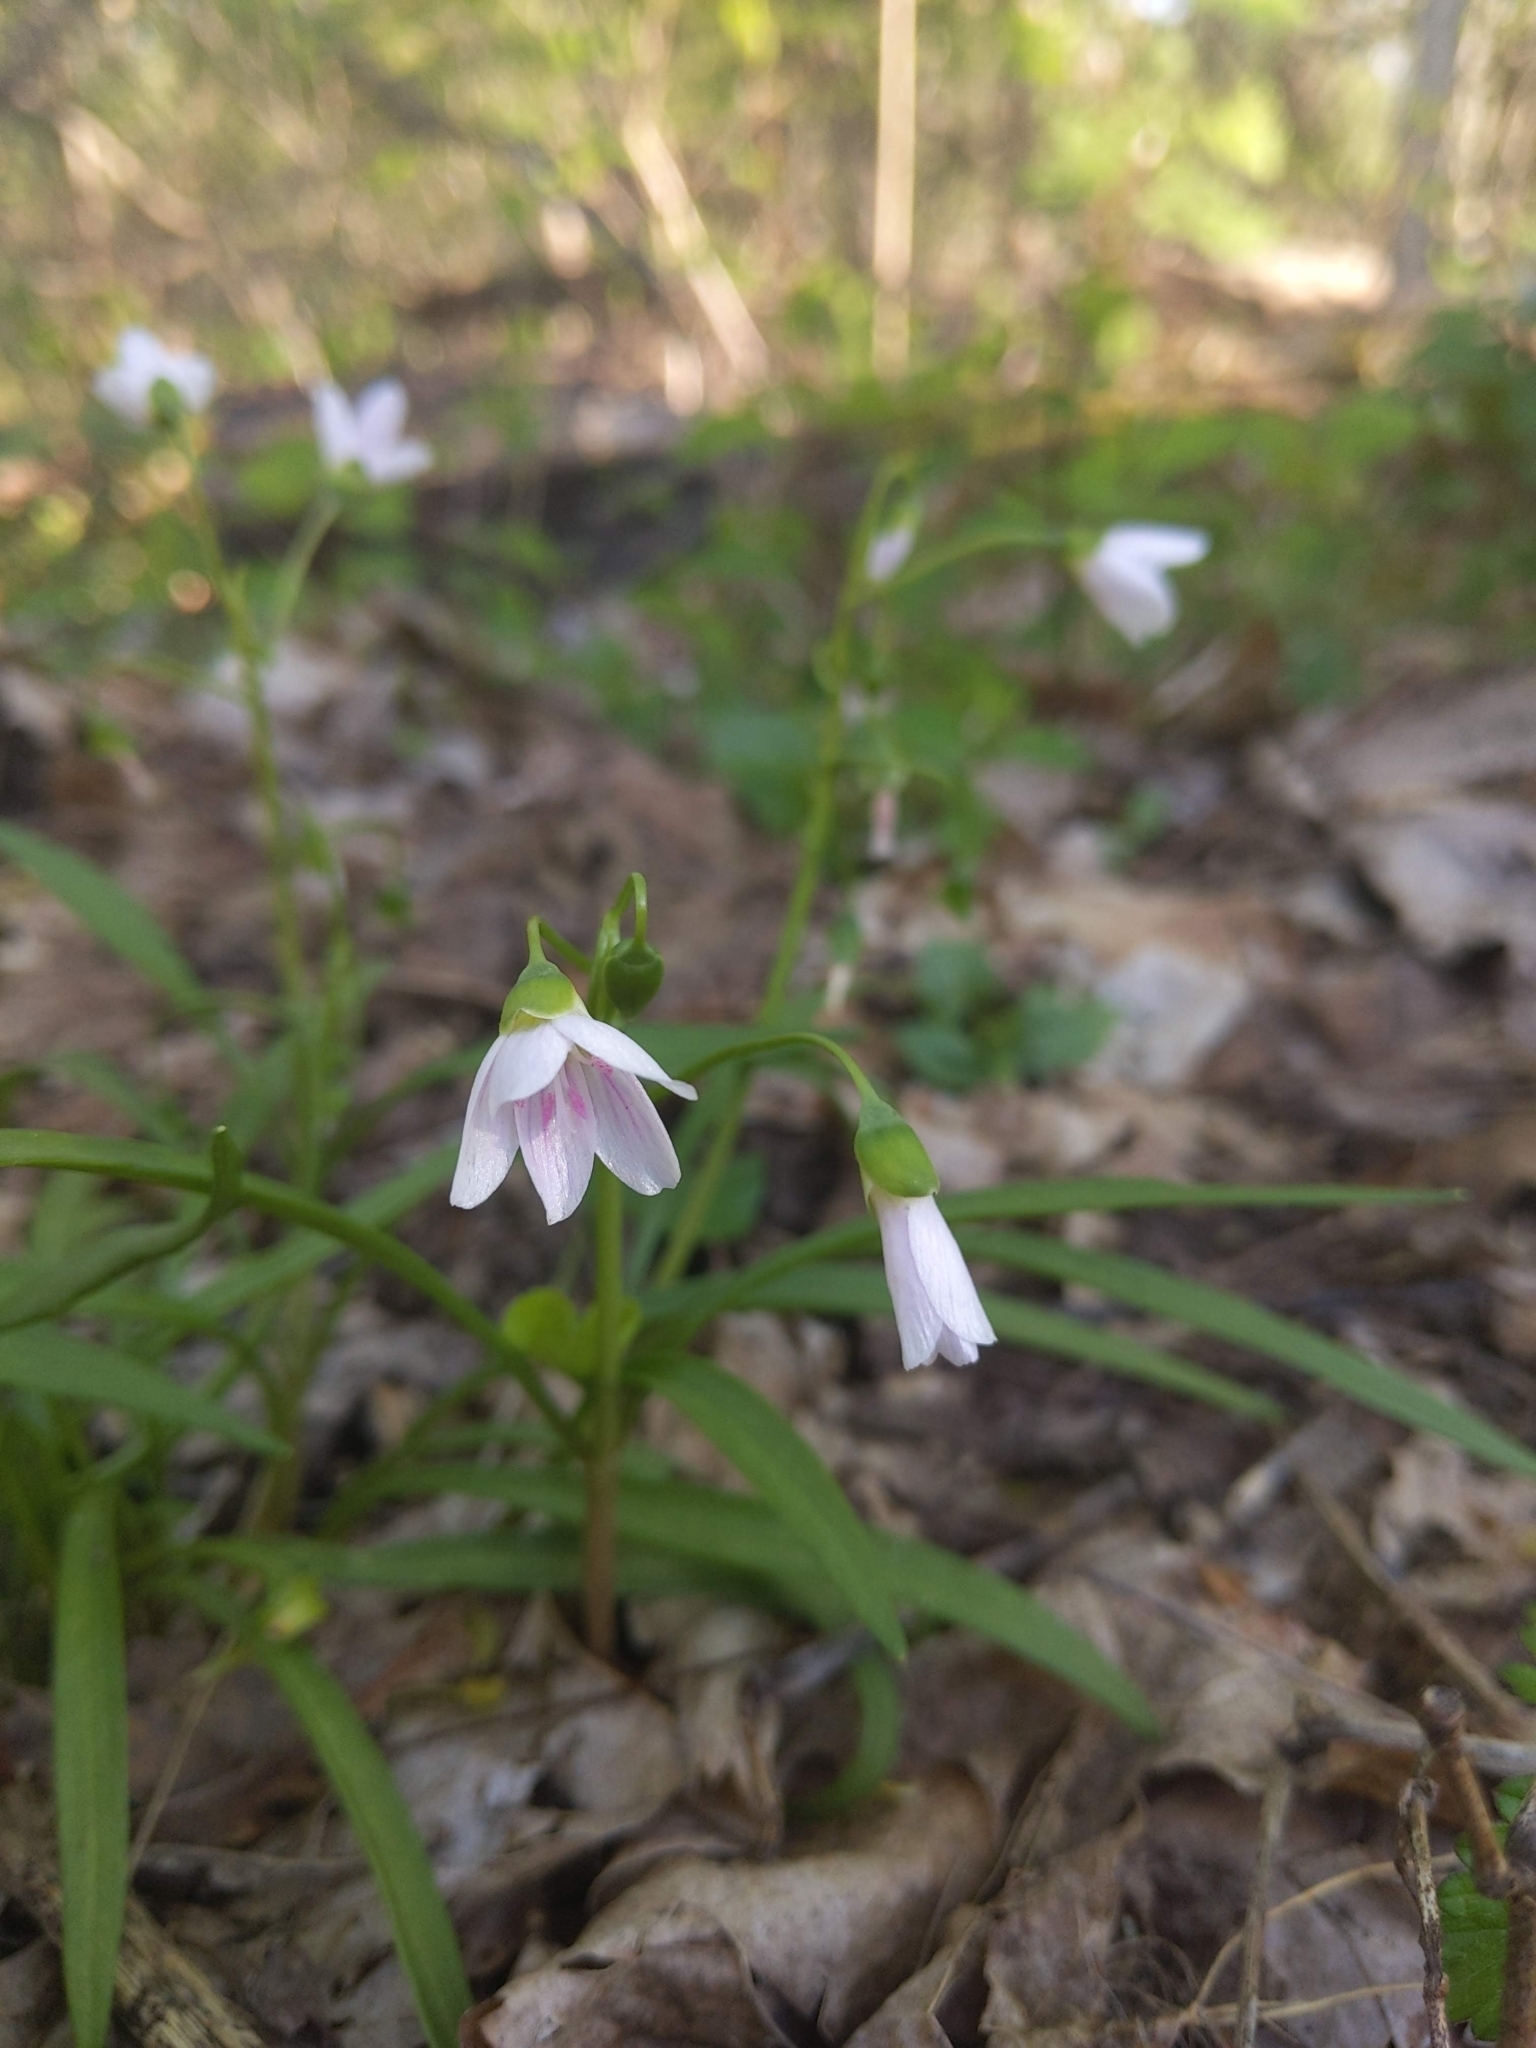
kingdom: Plantae
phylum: Tracheophyta
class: Magnoliopsida
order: Caryophyllales
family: Montiaceae
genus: Claytonia
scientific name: Claytonia virginica
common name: Virginia springbeauty
